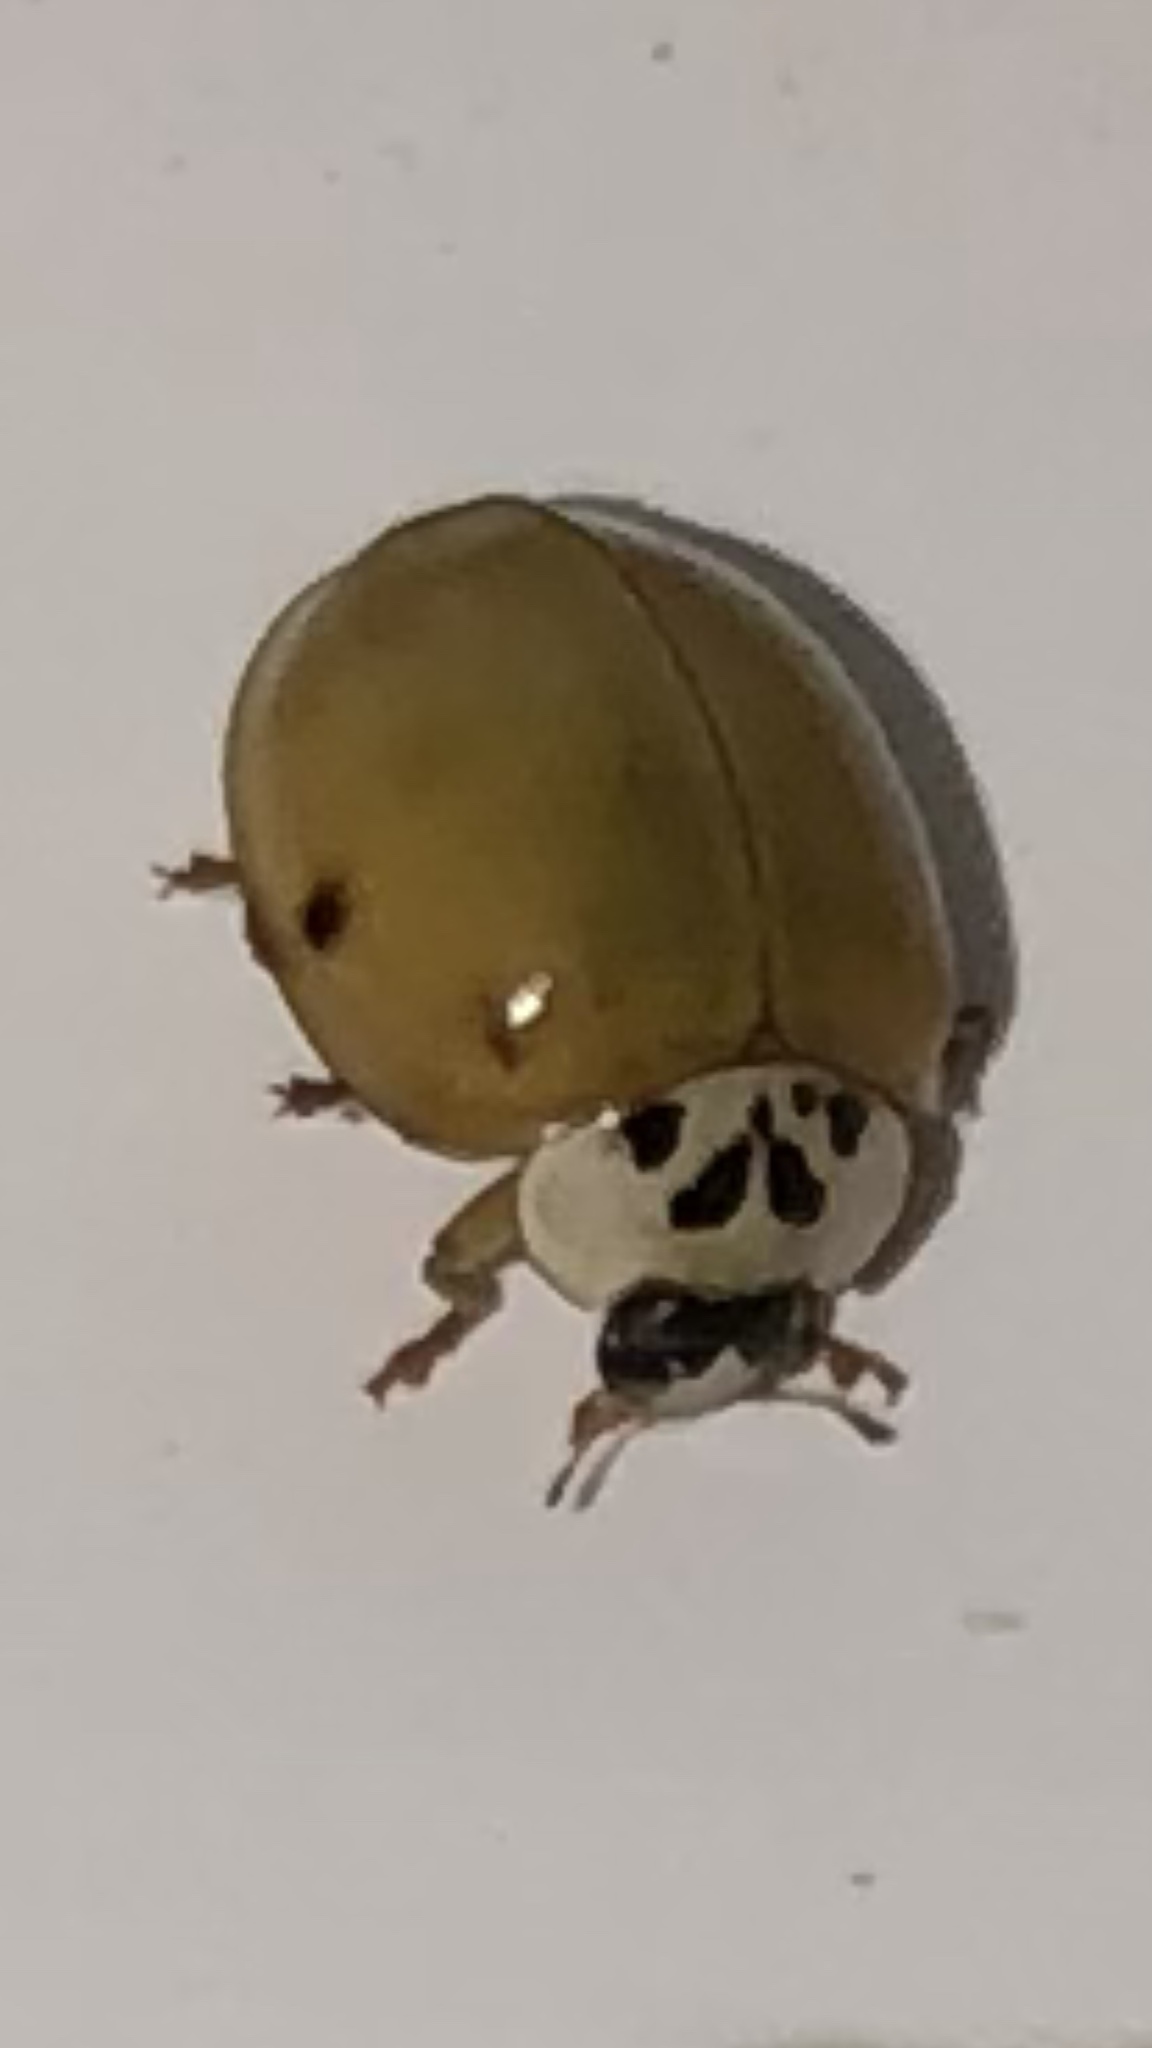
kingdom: Animalia
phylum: Arthropoda
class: Insecta
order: Coleoptera
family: Coccinellidae
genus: Harmonia
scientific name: Harmonia axyridis
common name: Harlequin ladybird
